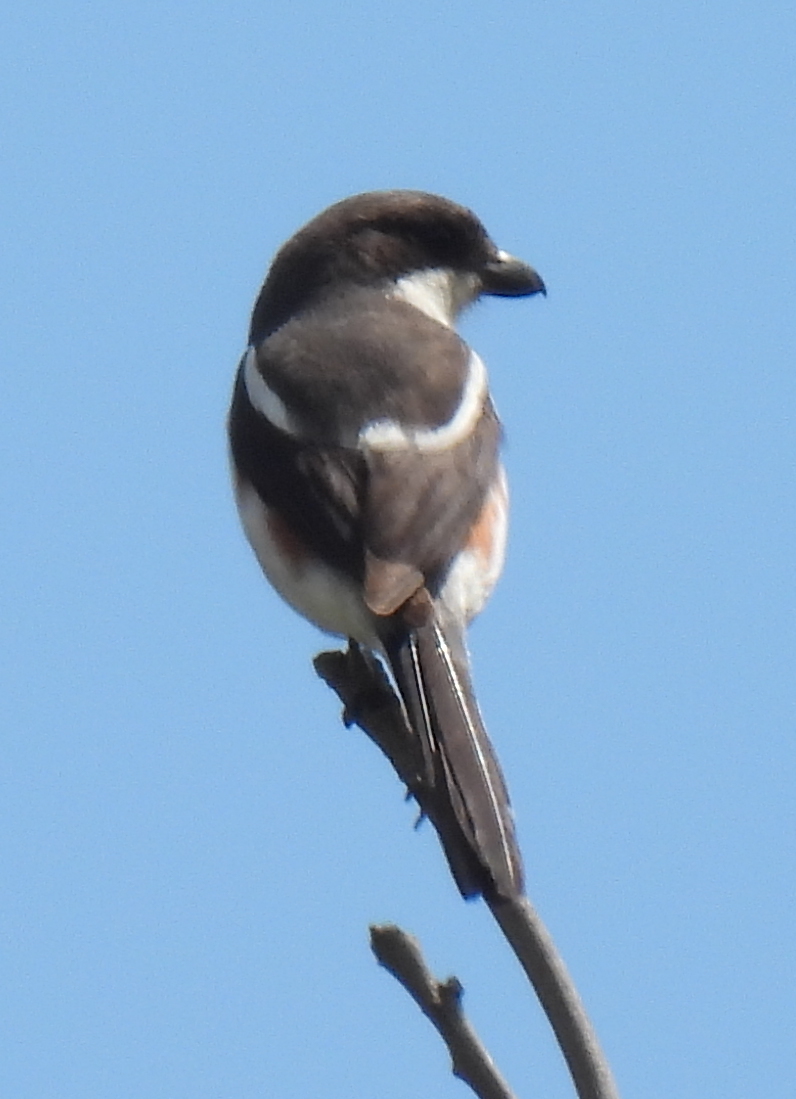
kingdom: Animalia
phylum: Chordata
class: Aves
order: Passeriformes
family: Laniidae
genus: Lanius
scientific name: Lanius collaris
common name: Southern fiscal
